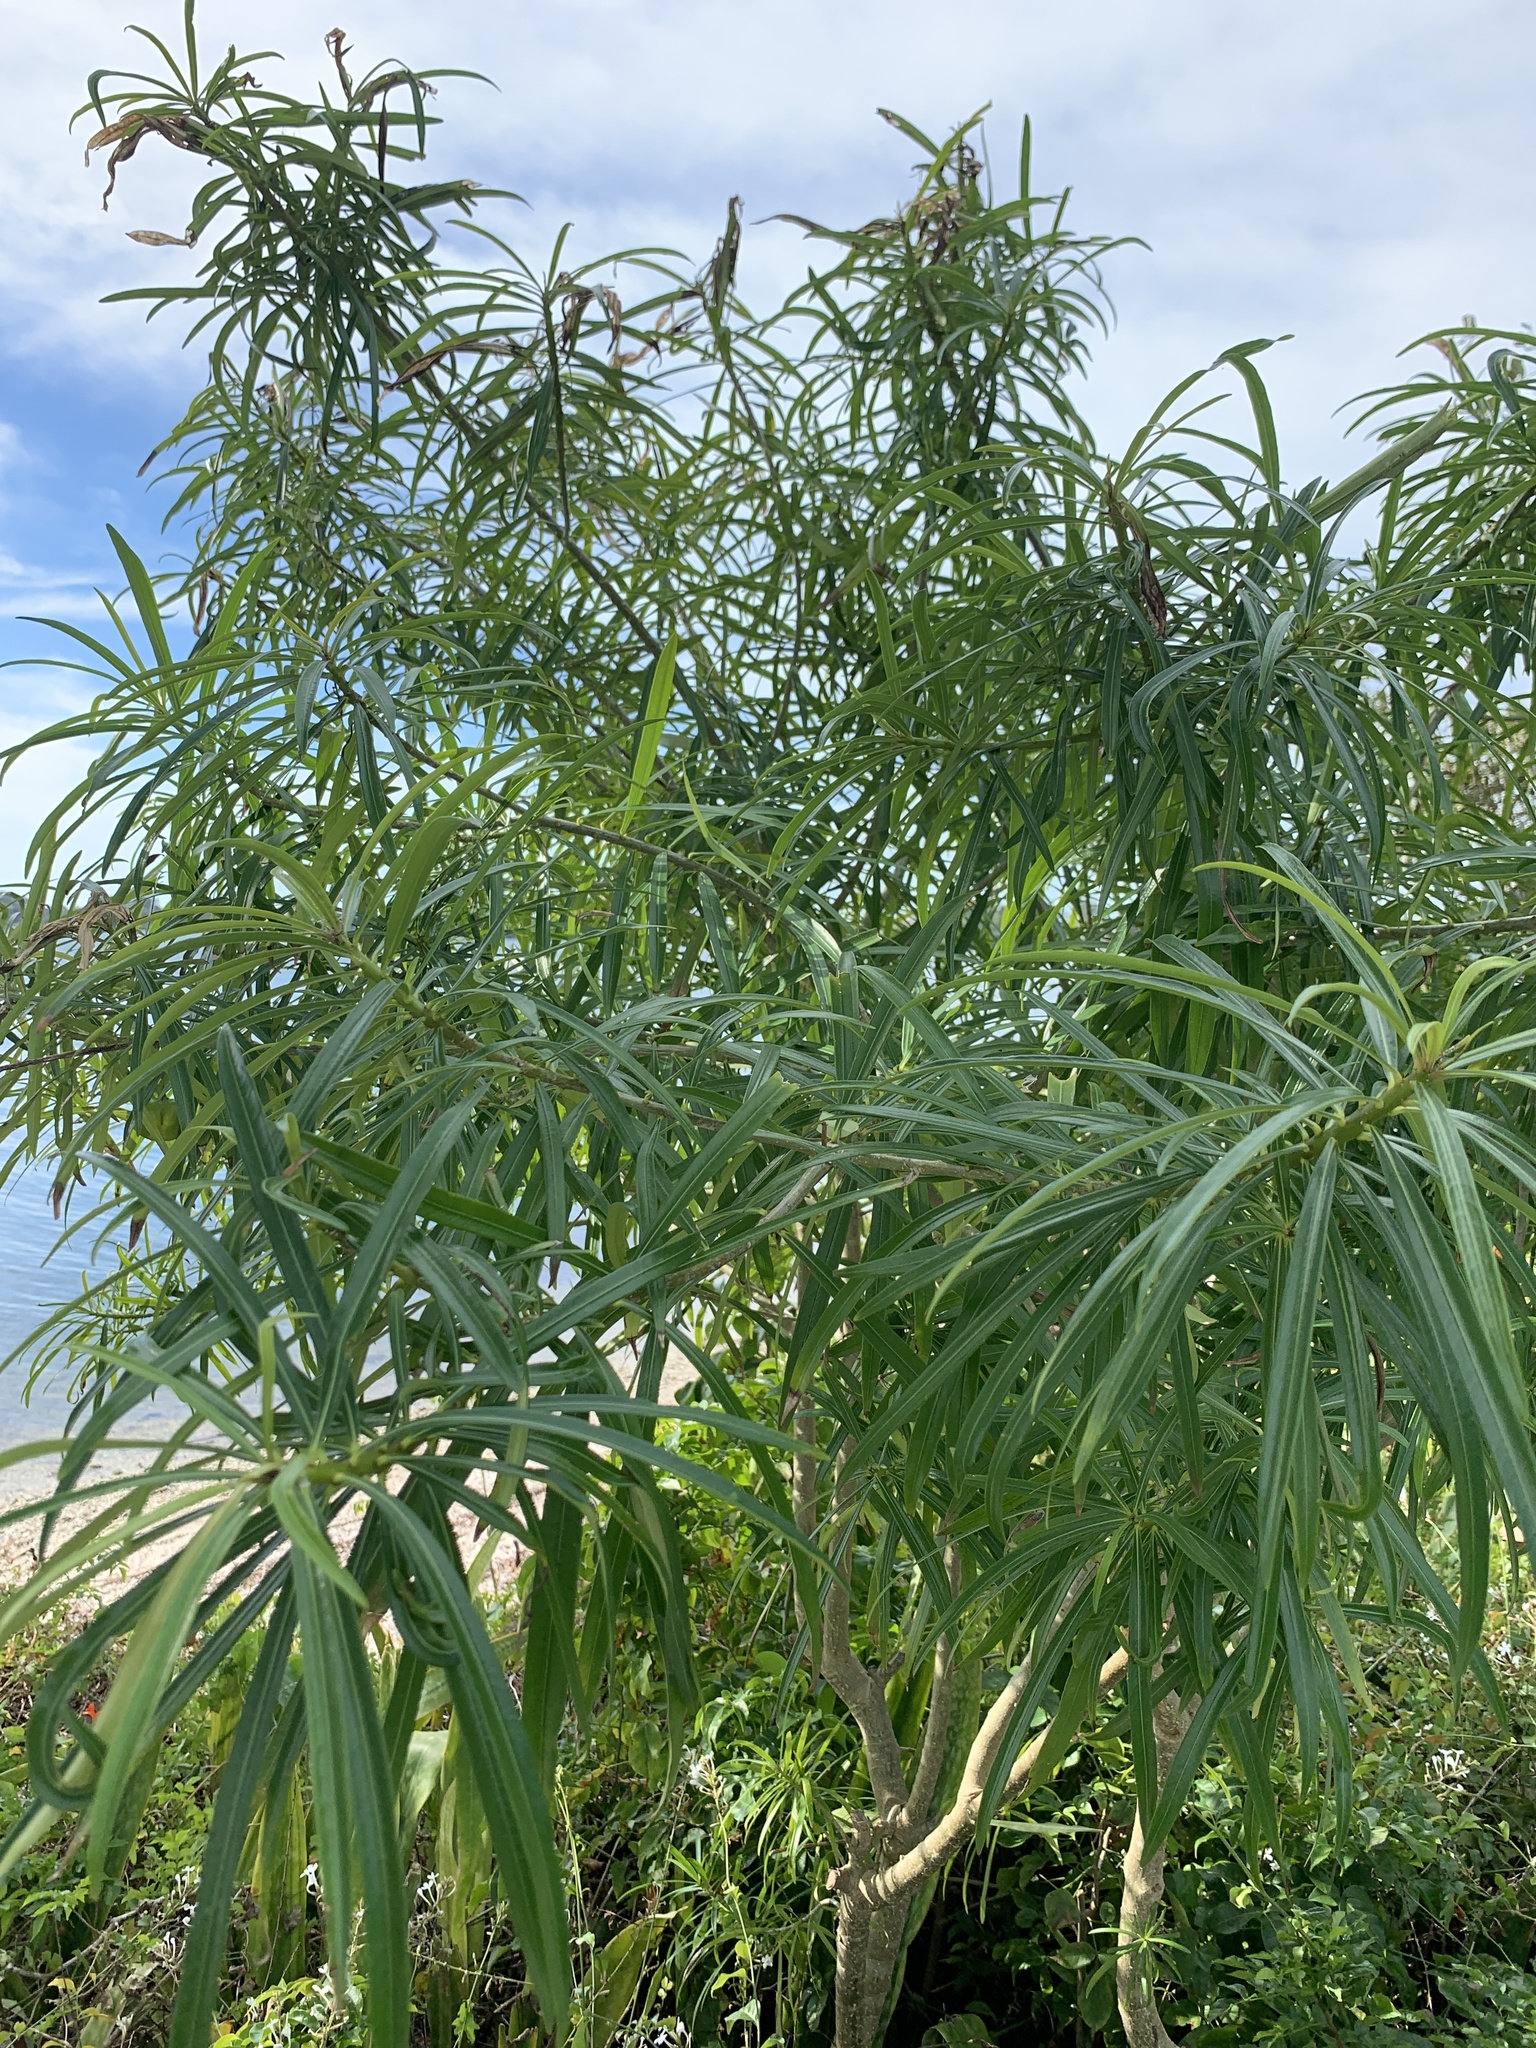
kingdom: Plantae
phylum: Tracheophyta
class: Magnoliopsida
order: Gentianales
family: Apocynaceae
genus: Cascabela
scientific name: Cascabela thevetia
